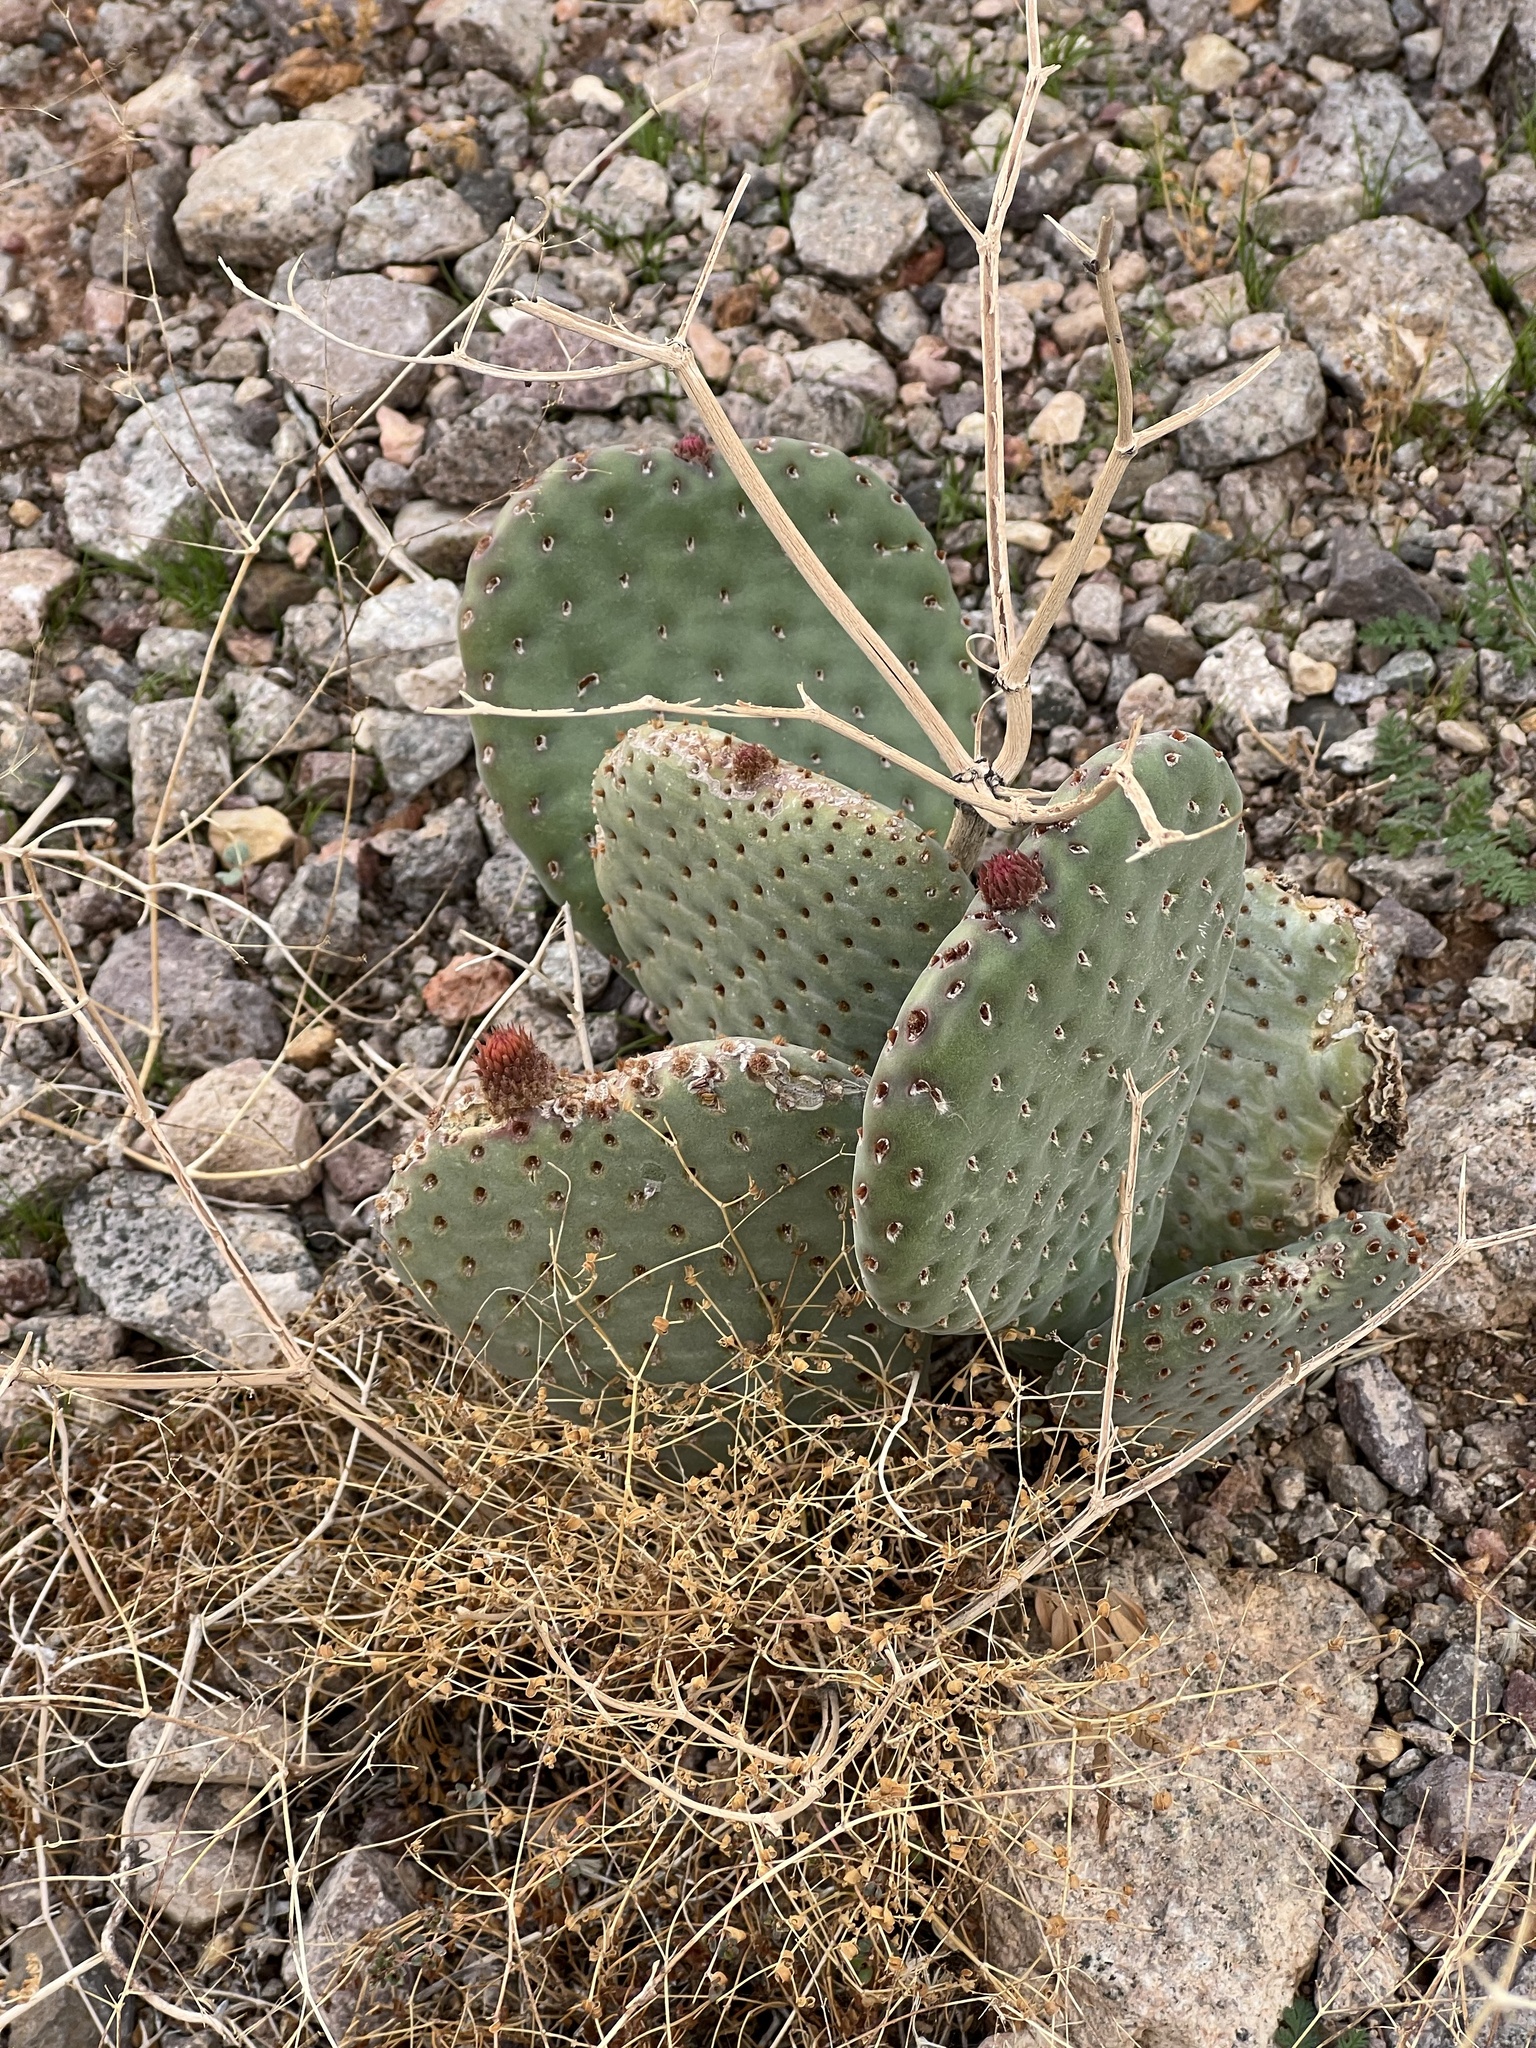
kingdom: Plantae
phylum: Tracheophyta
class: Magnoliopsida
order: Caryophyllales
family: Cactaceae
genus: Opuntia
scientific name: Opuntia basilaris
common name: Beavertail prickly-pear
